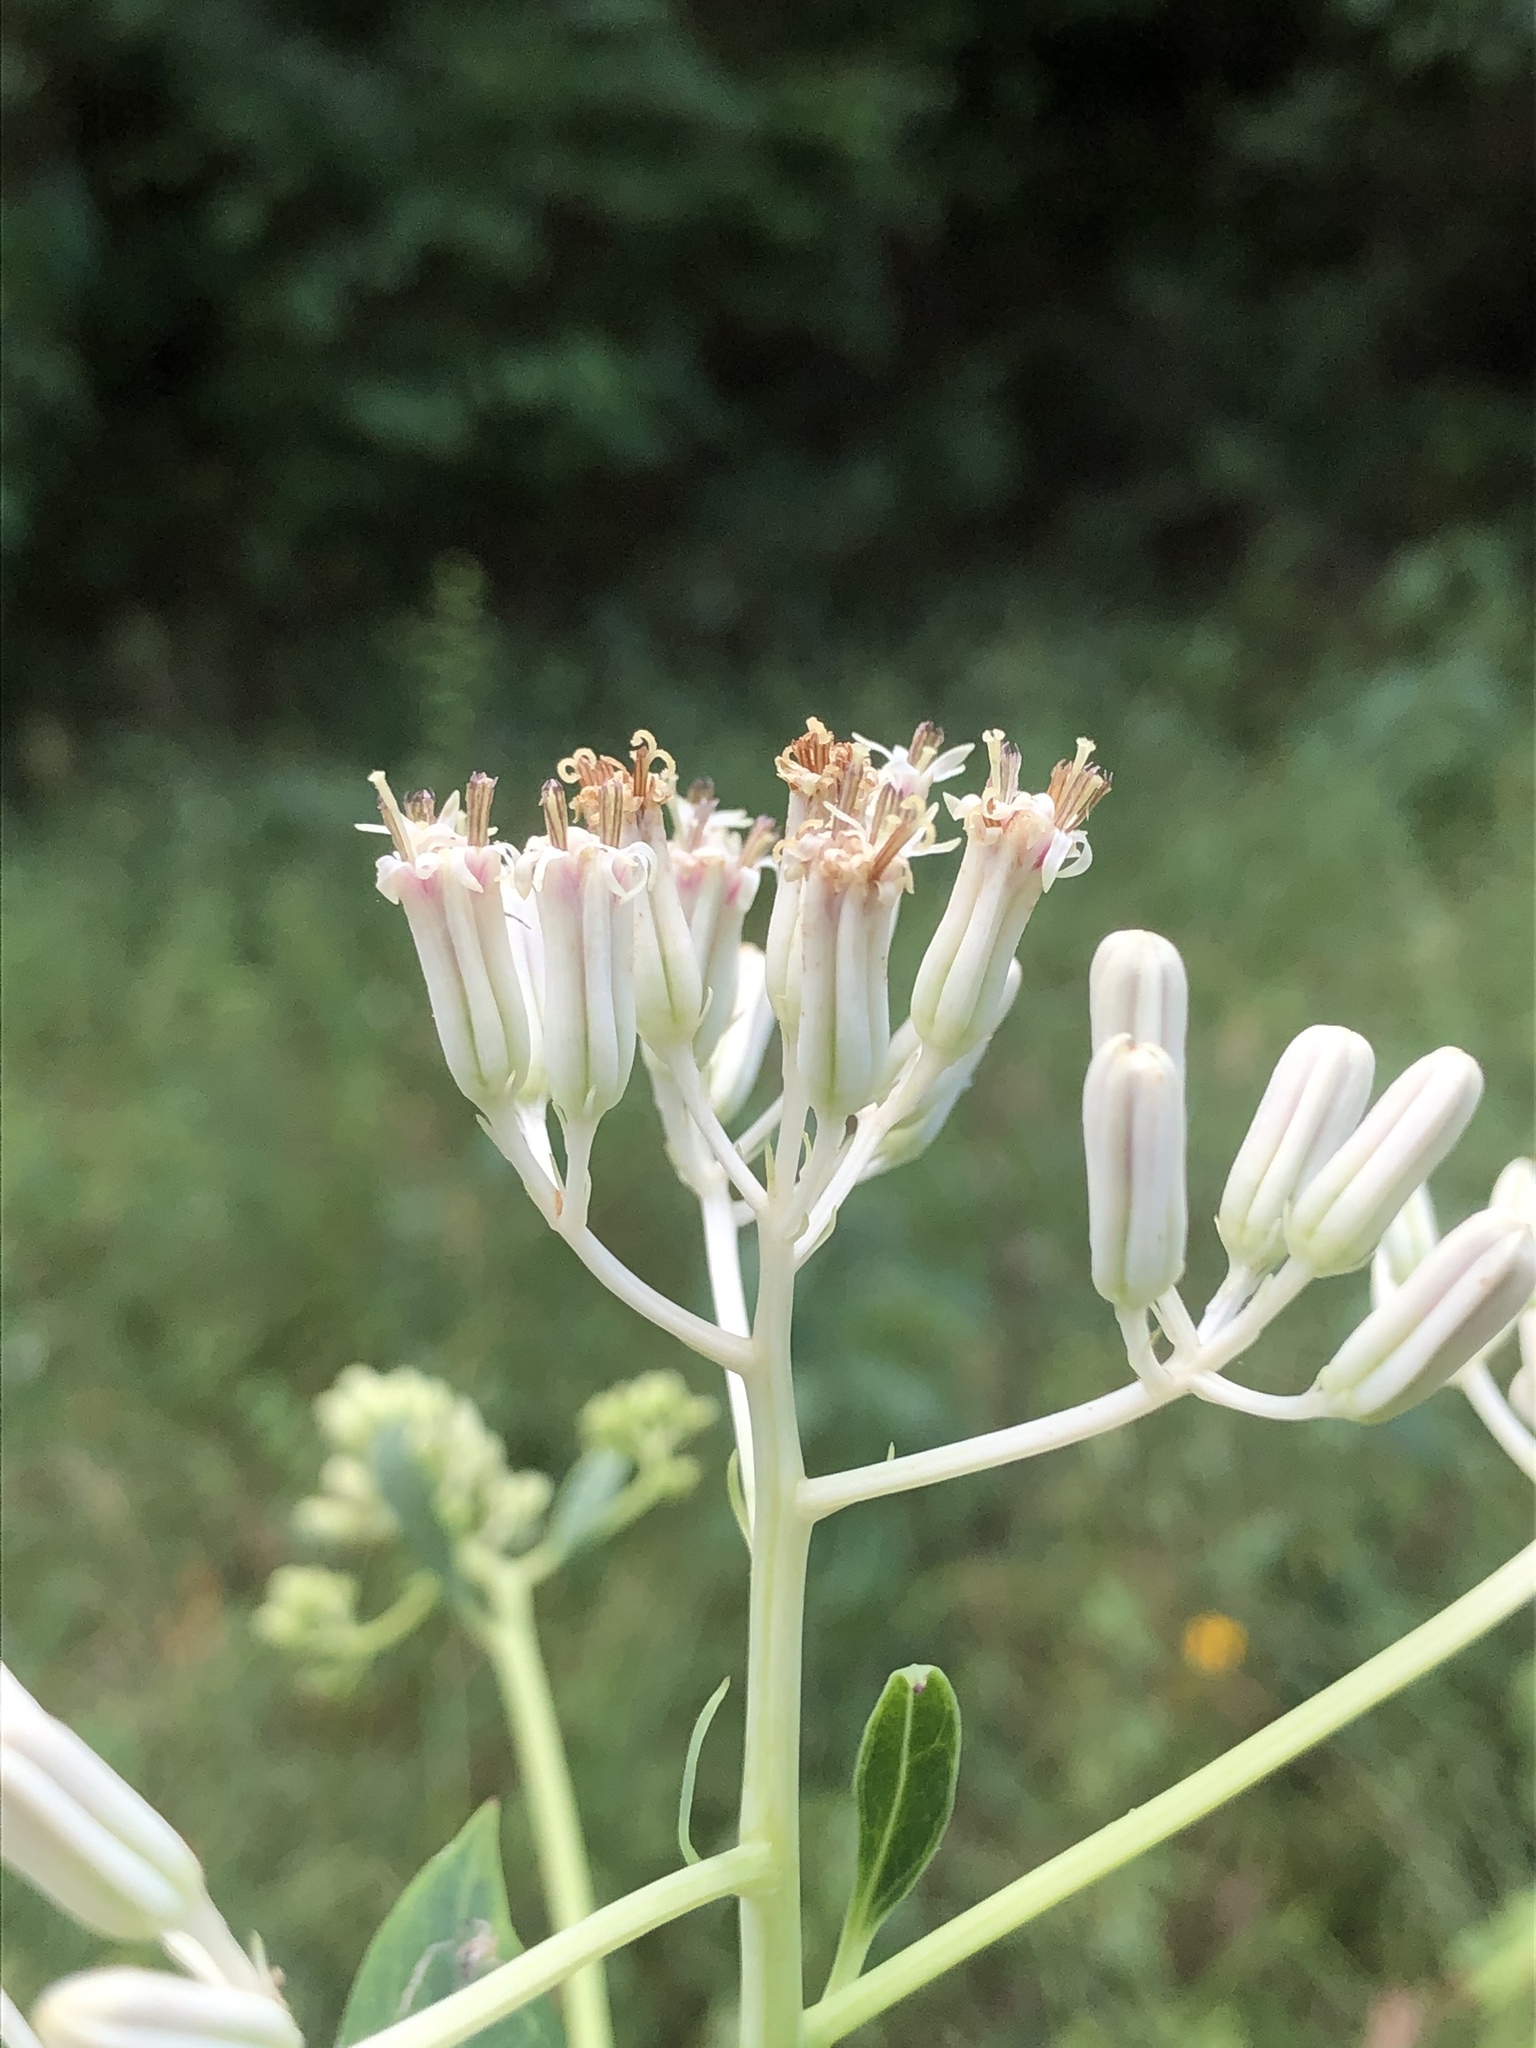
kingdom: Plantae
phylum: Tracheophyta
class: Magnoliopsida
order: Asterales
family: Asteraceae
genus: Arnoglossum
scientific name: Arnoglossum ovatum
